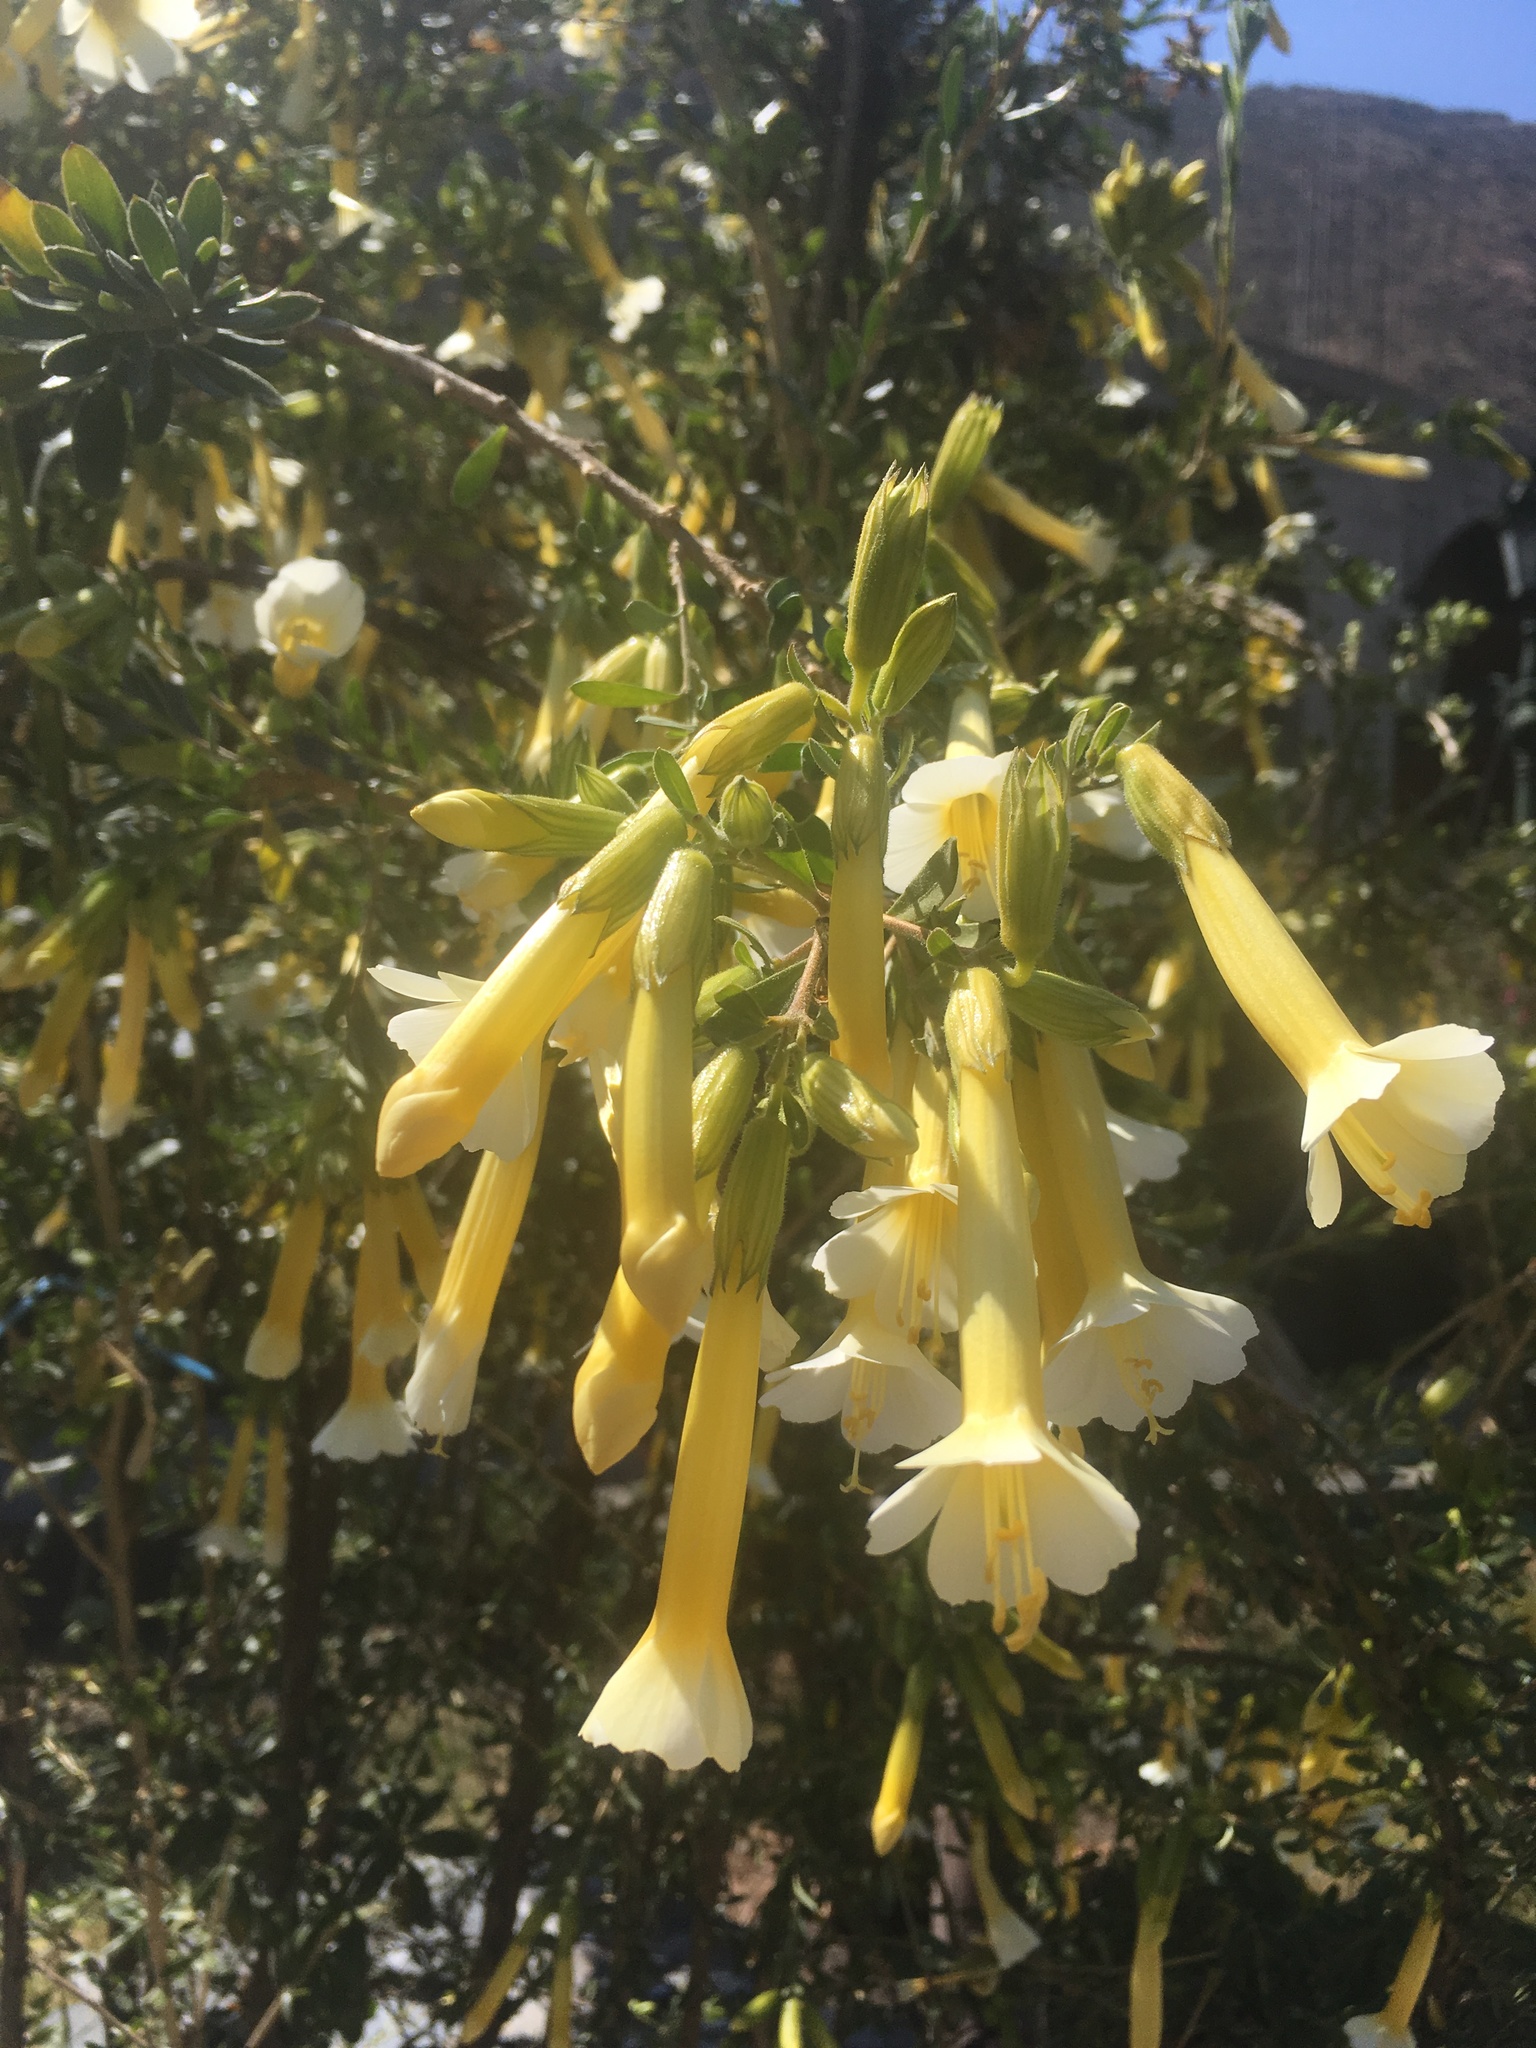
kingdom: Plantae
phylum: Tracheophyta
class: Magnoliopsida
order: Ericales
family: Polemoniaceae
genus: Cantua
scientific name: Cantua buxifolia
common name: Sacred-flower-of-the-incas
